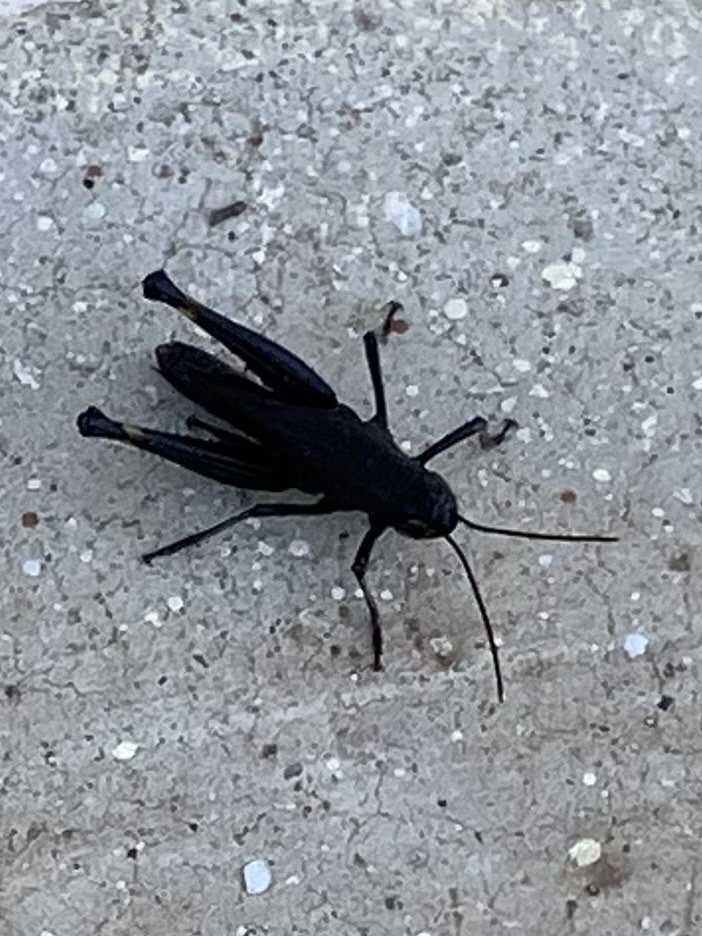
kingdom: Animalia
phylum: Arthropoda
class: Insecta
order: Orthoptera
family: Acrididae
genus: Boopedon
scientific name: Boopedon nubilum
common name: Ebony grasshopper
